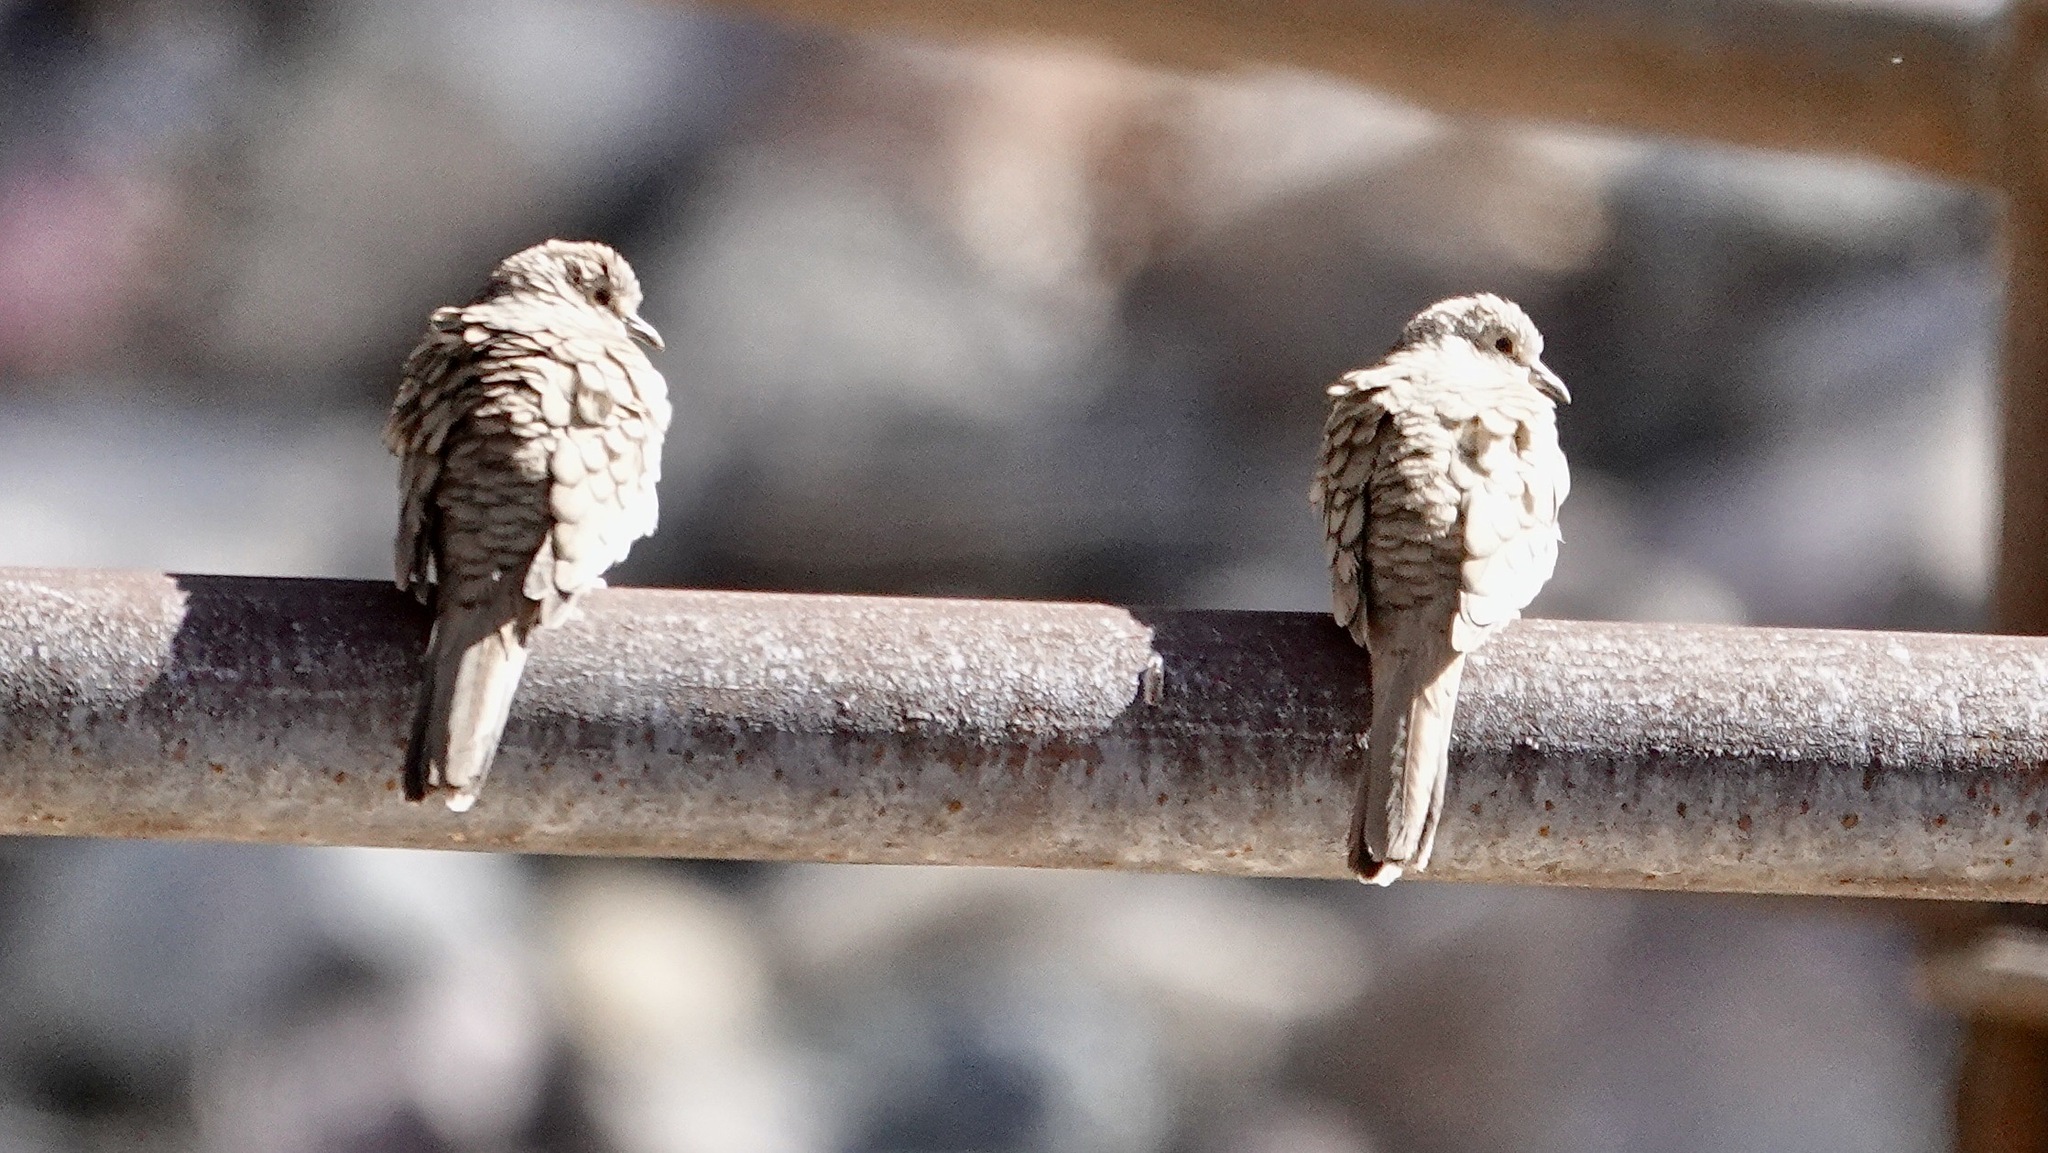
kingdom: Animalia
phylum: Chordata
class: Aves
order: Columbiformes
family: Columbidae
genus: Columbina
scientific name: Columbina inca
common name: Inca dove
